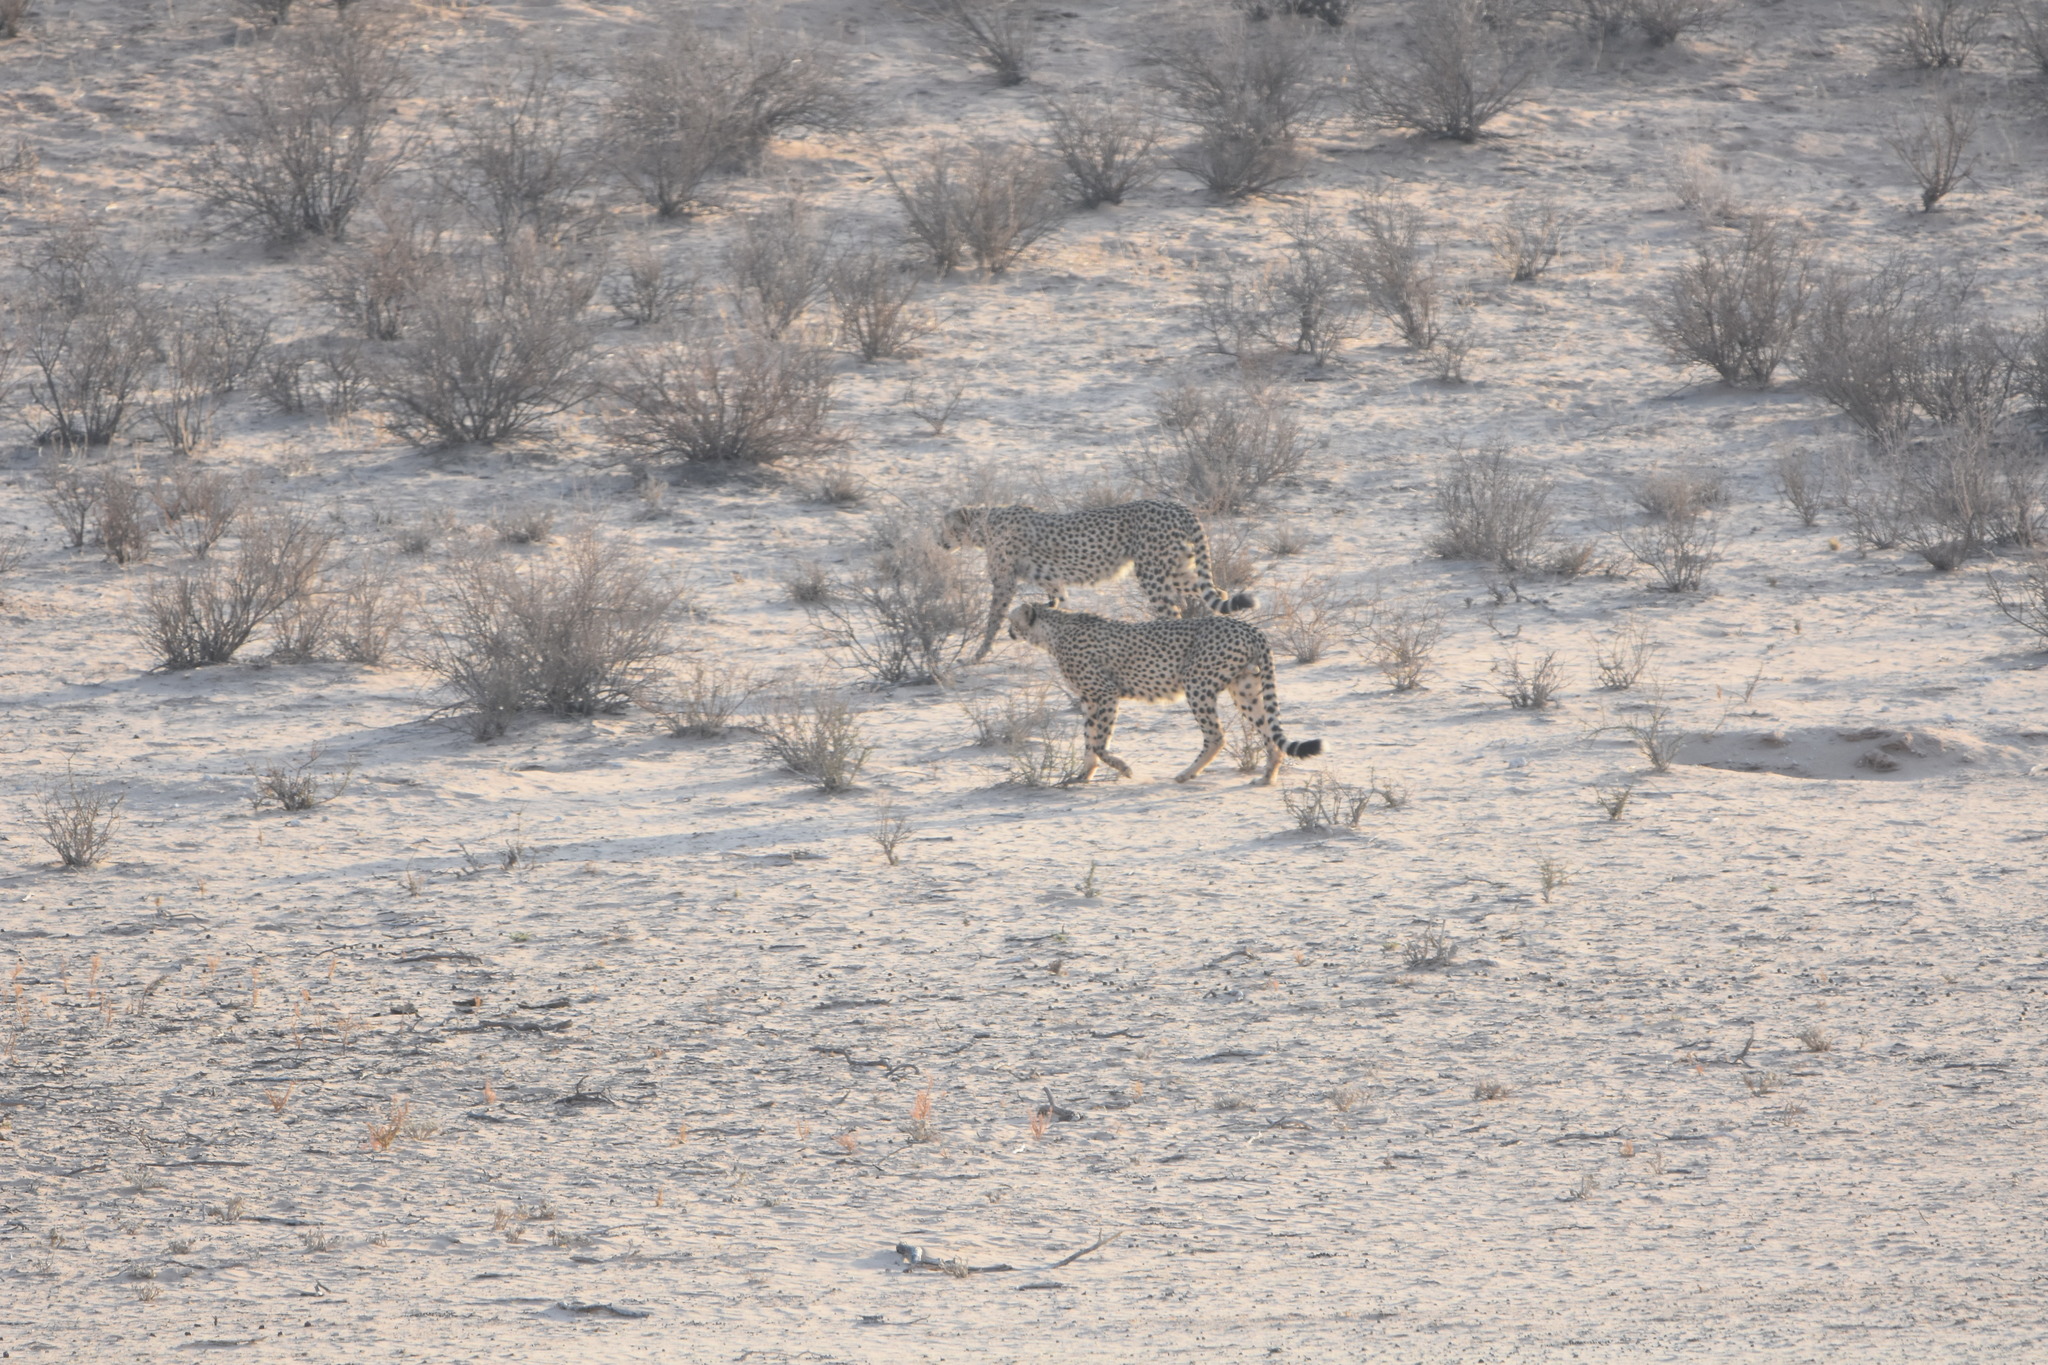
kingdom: Animalia
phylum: Chordata
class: Mammalia
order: Carnivora
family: Felidae
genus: Acinonyx
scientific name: Acinonyx jubatus
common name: Cheetah
